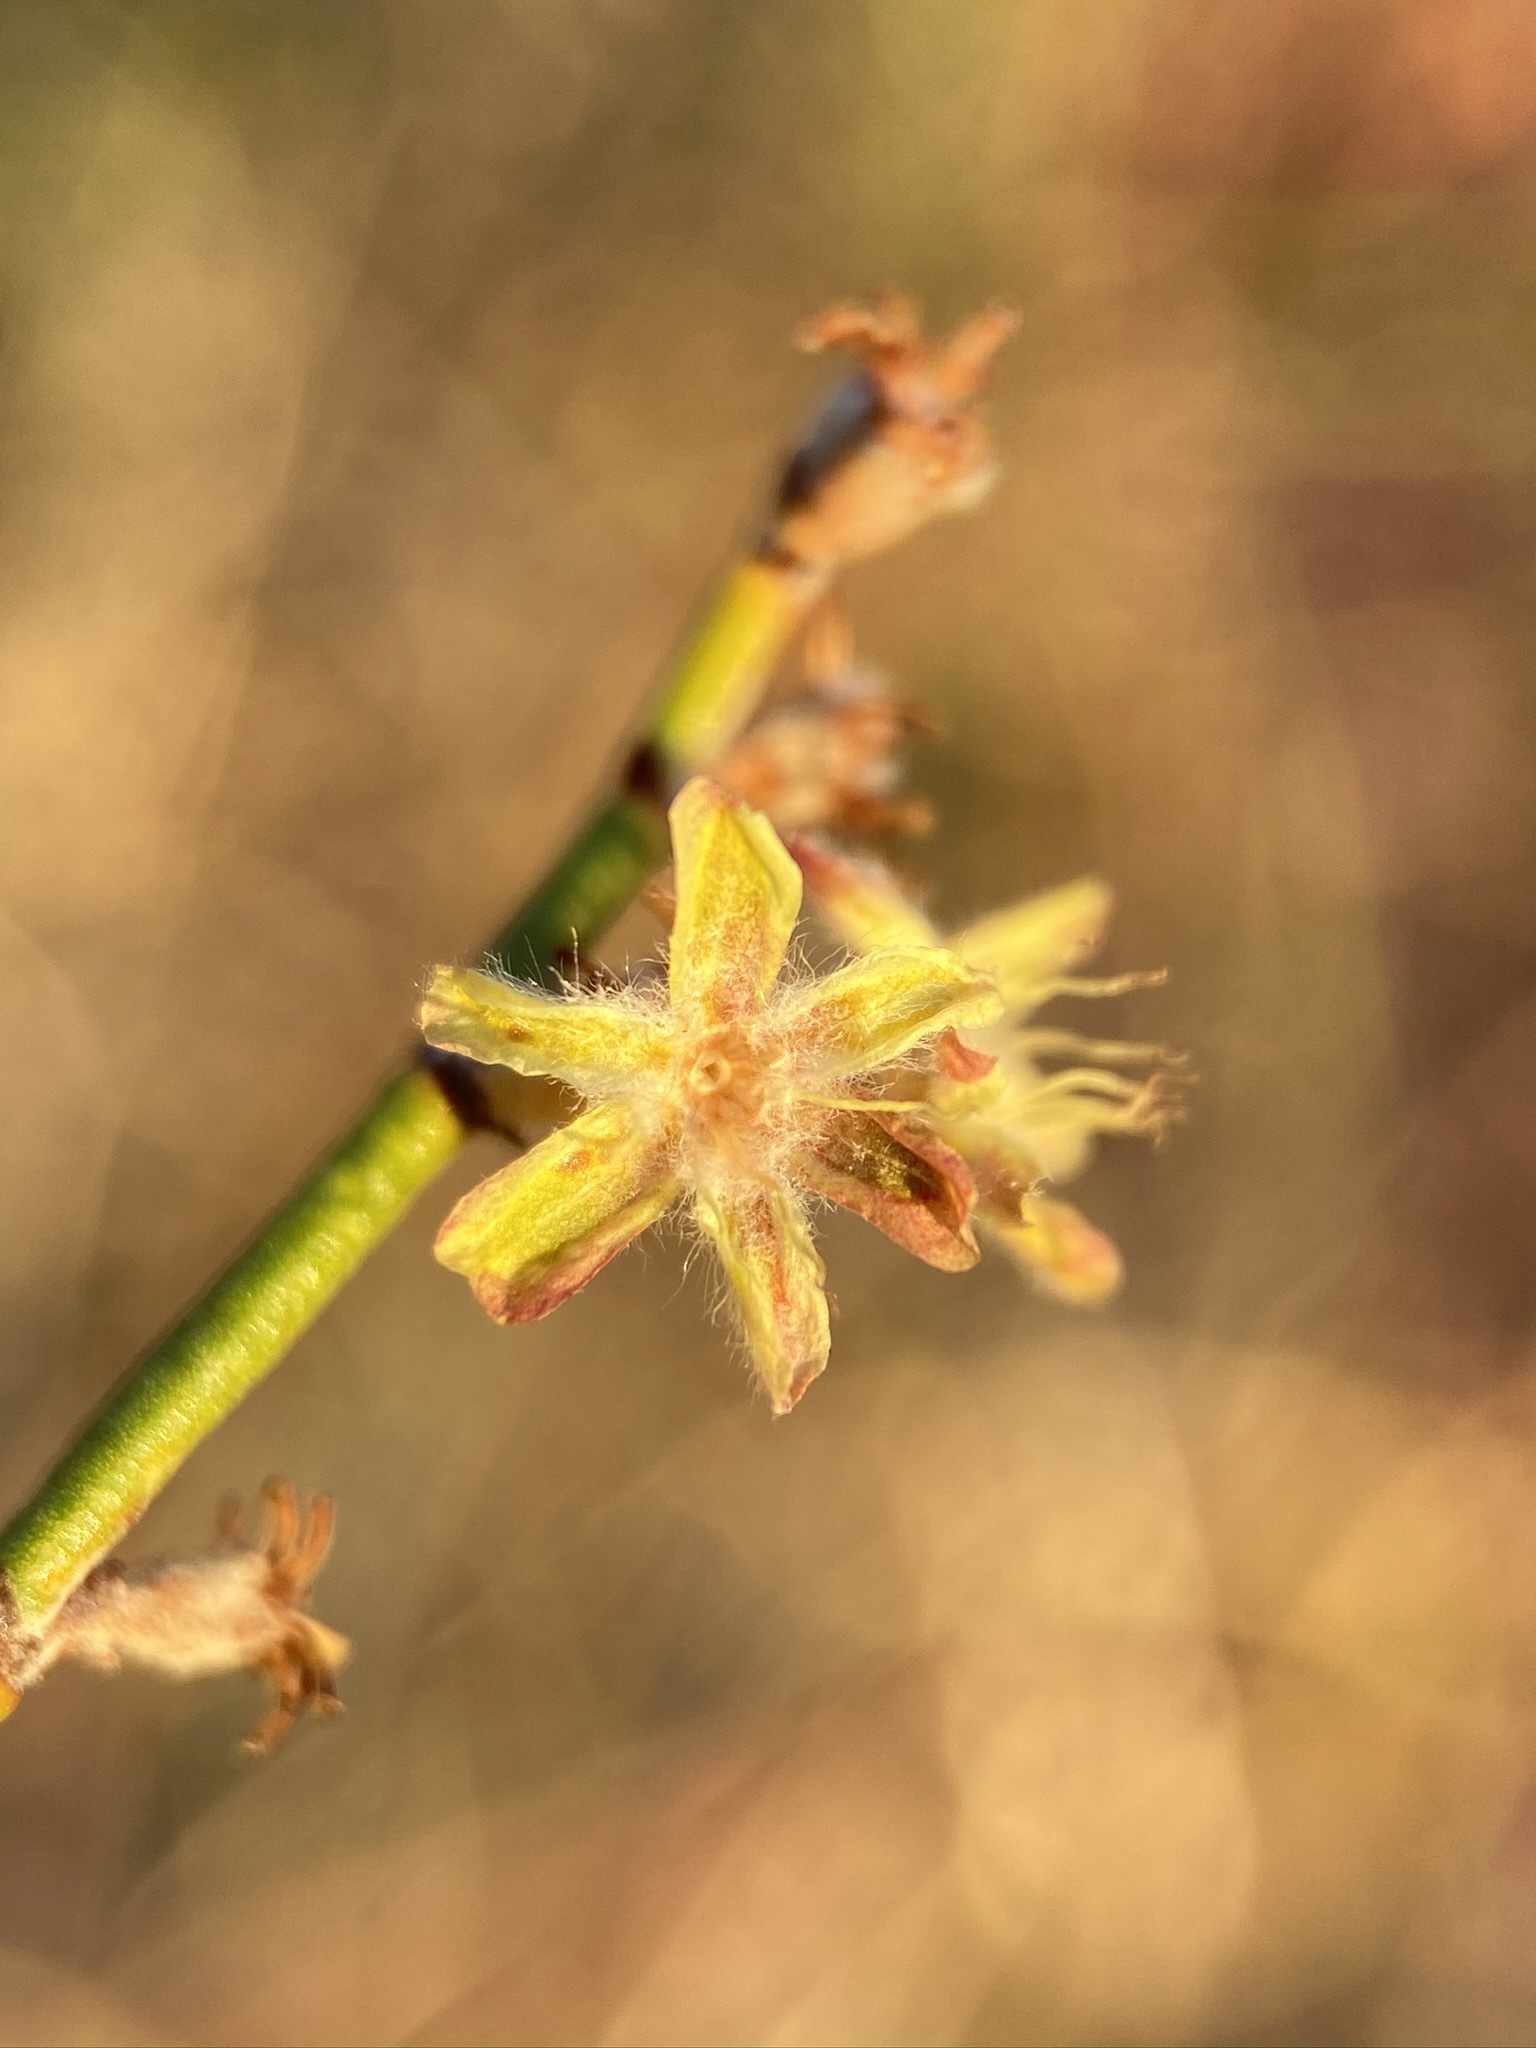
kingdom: Plantae
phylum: Tracheophyta
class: Magnoliopsida
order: Caryophyllales
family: Polygonaceae
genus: Eriogonum
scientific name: Eriogonum deserticola
